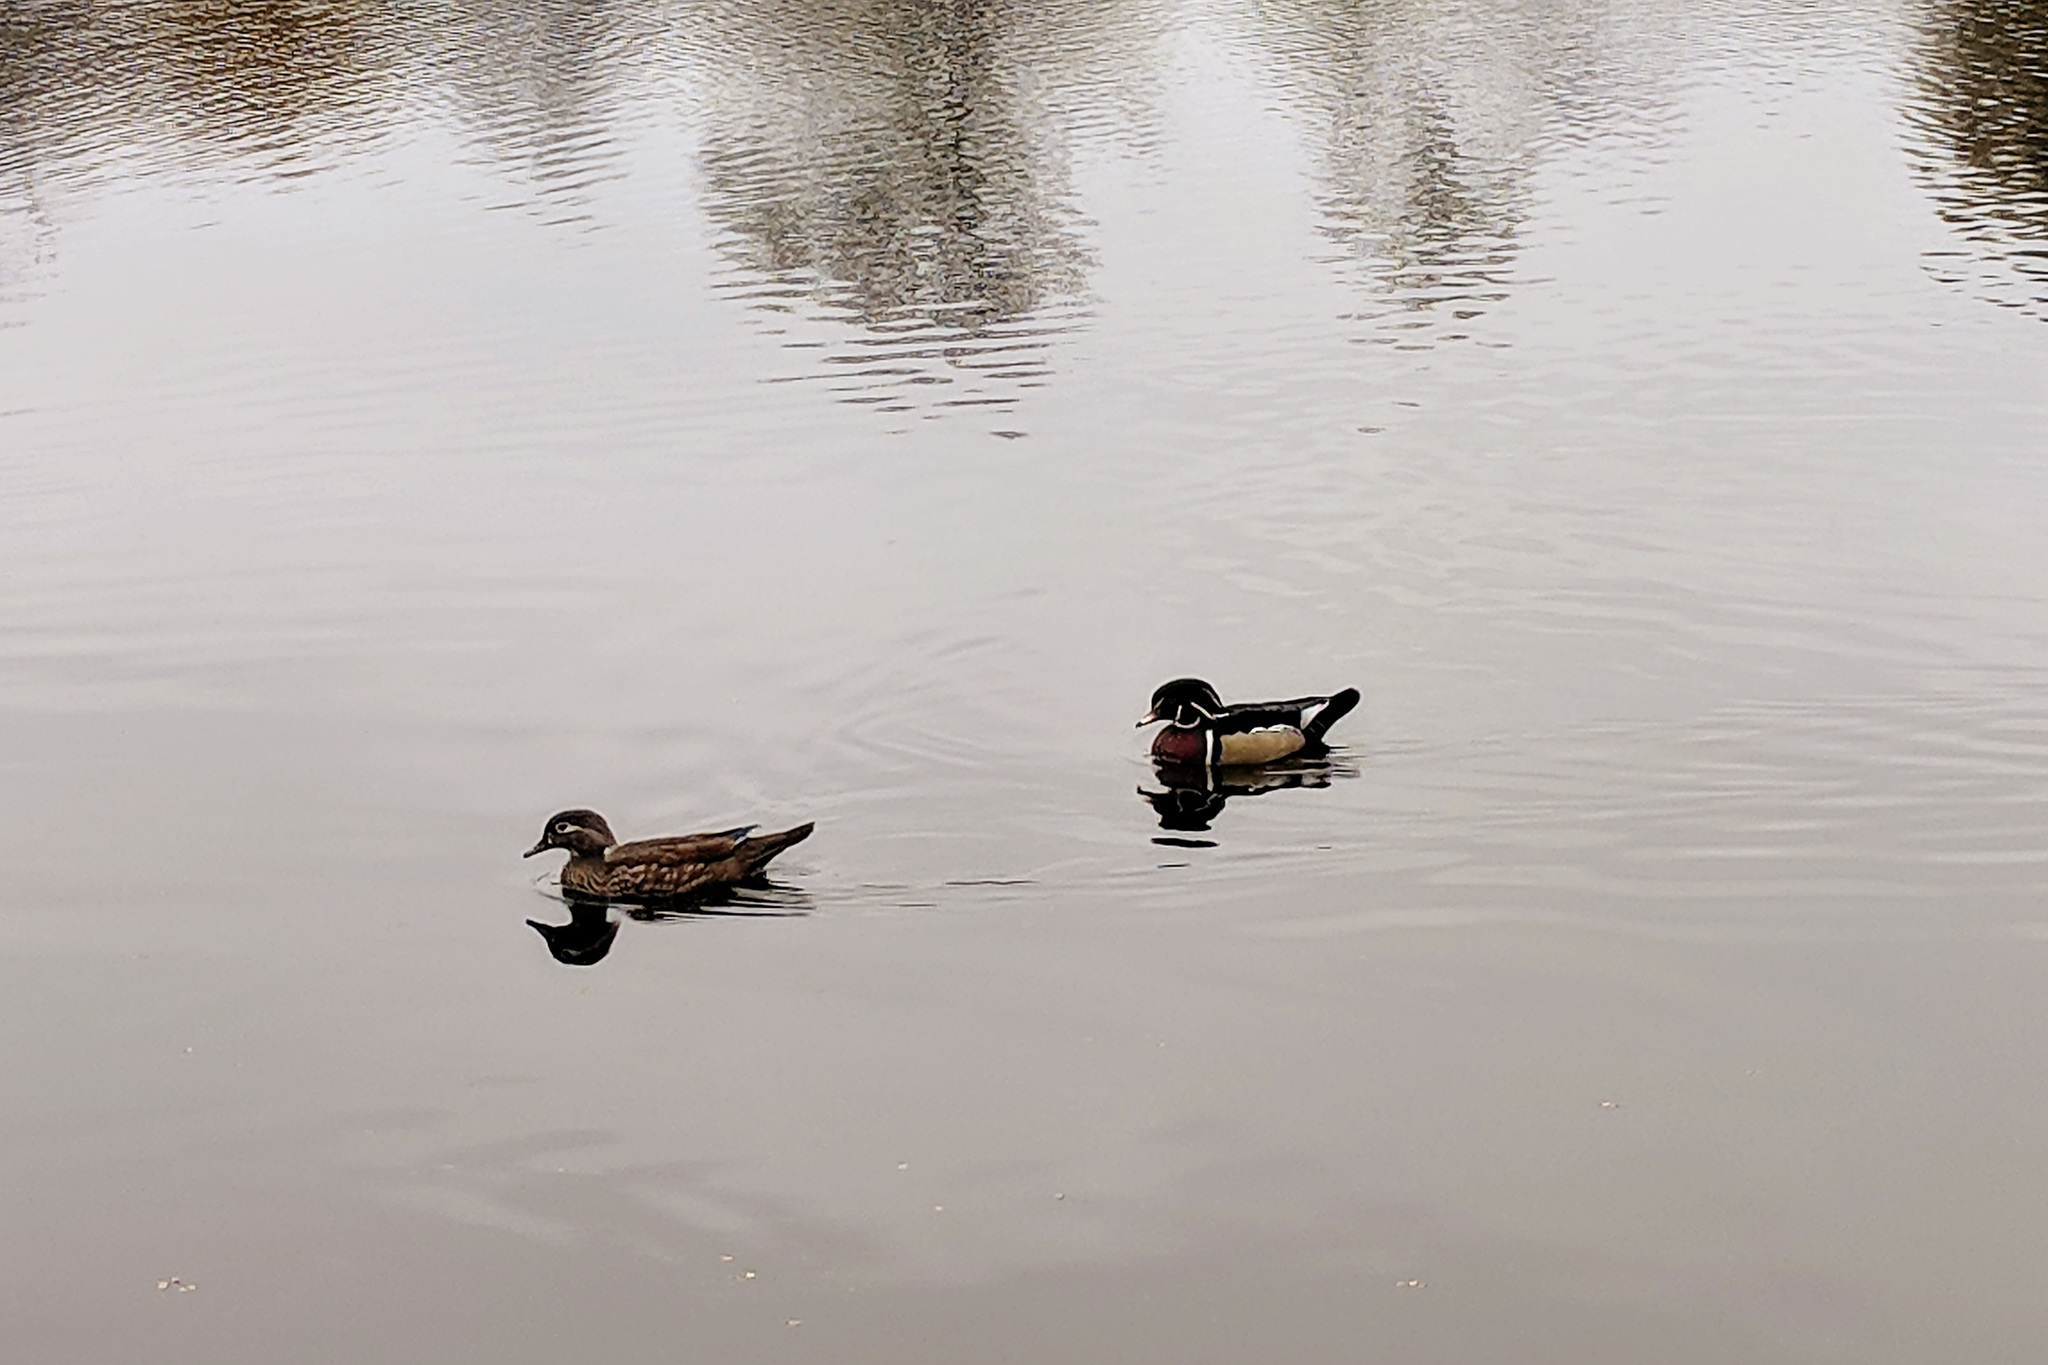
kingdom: Animalia
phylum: Chordata
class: Aves
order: Anseriformes
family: Anatidae
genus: Aix
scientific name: Aix sponsa
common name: Wood duck
